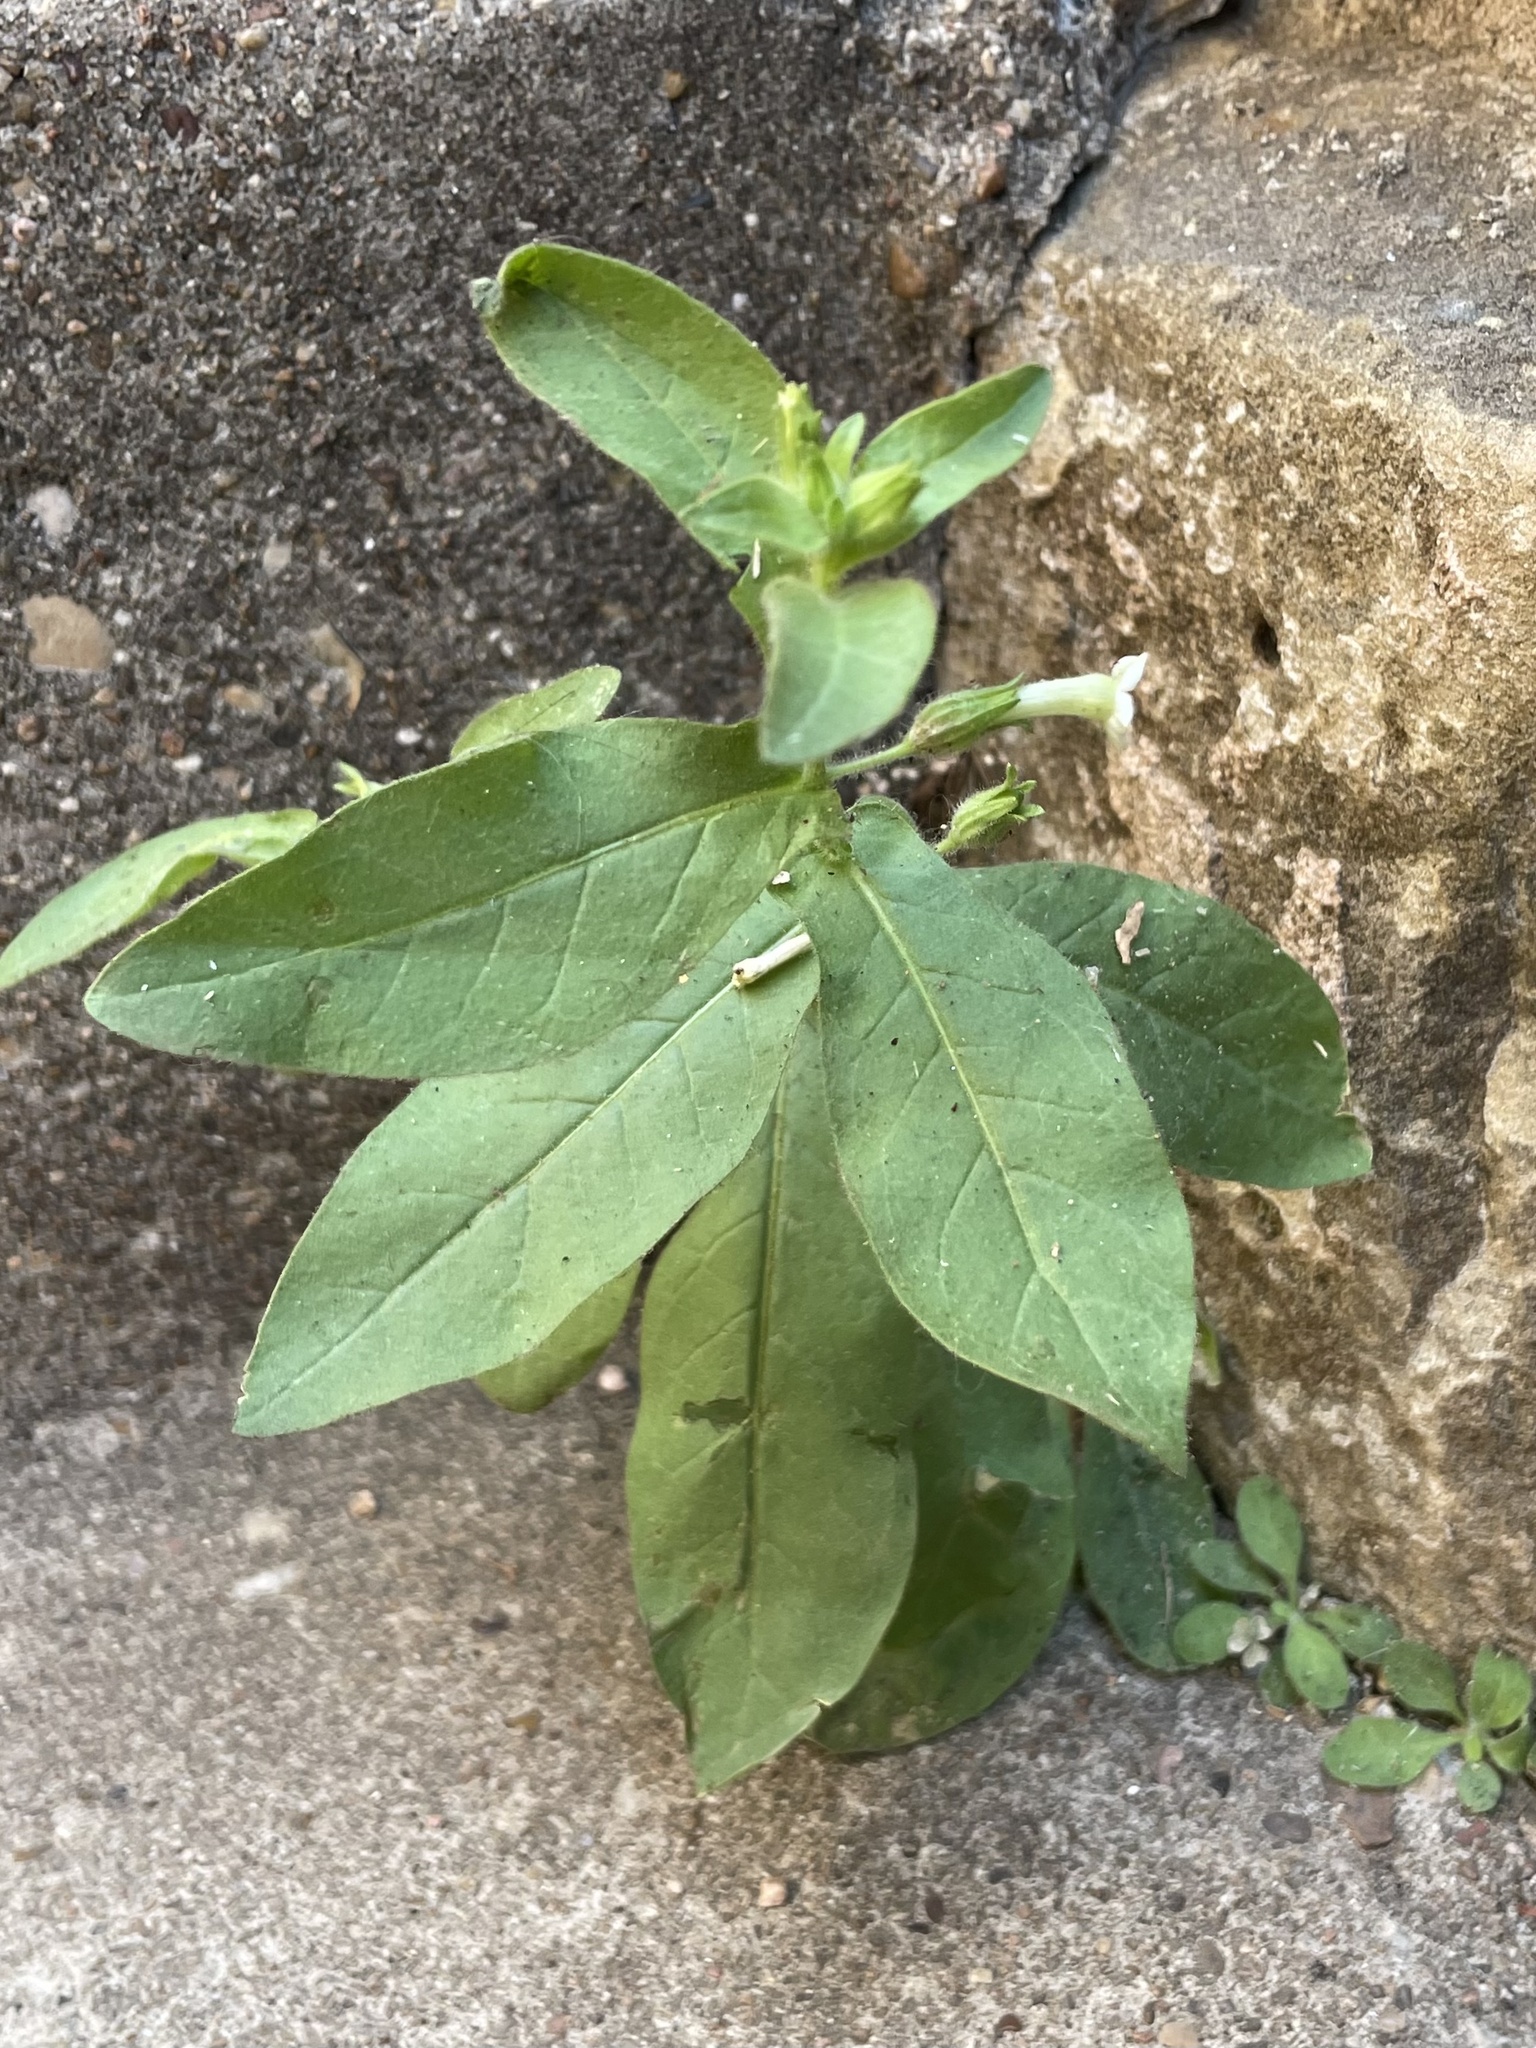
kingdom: Plantae
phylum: Tracheophyta
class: Magnoliopsida
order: Solanales
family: Solanaceae
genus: Nicotiana
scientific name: Nicotiana obtusifolia
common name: Desert tobacco
